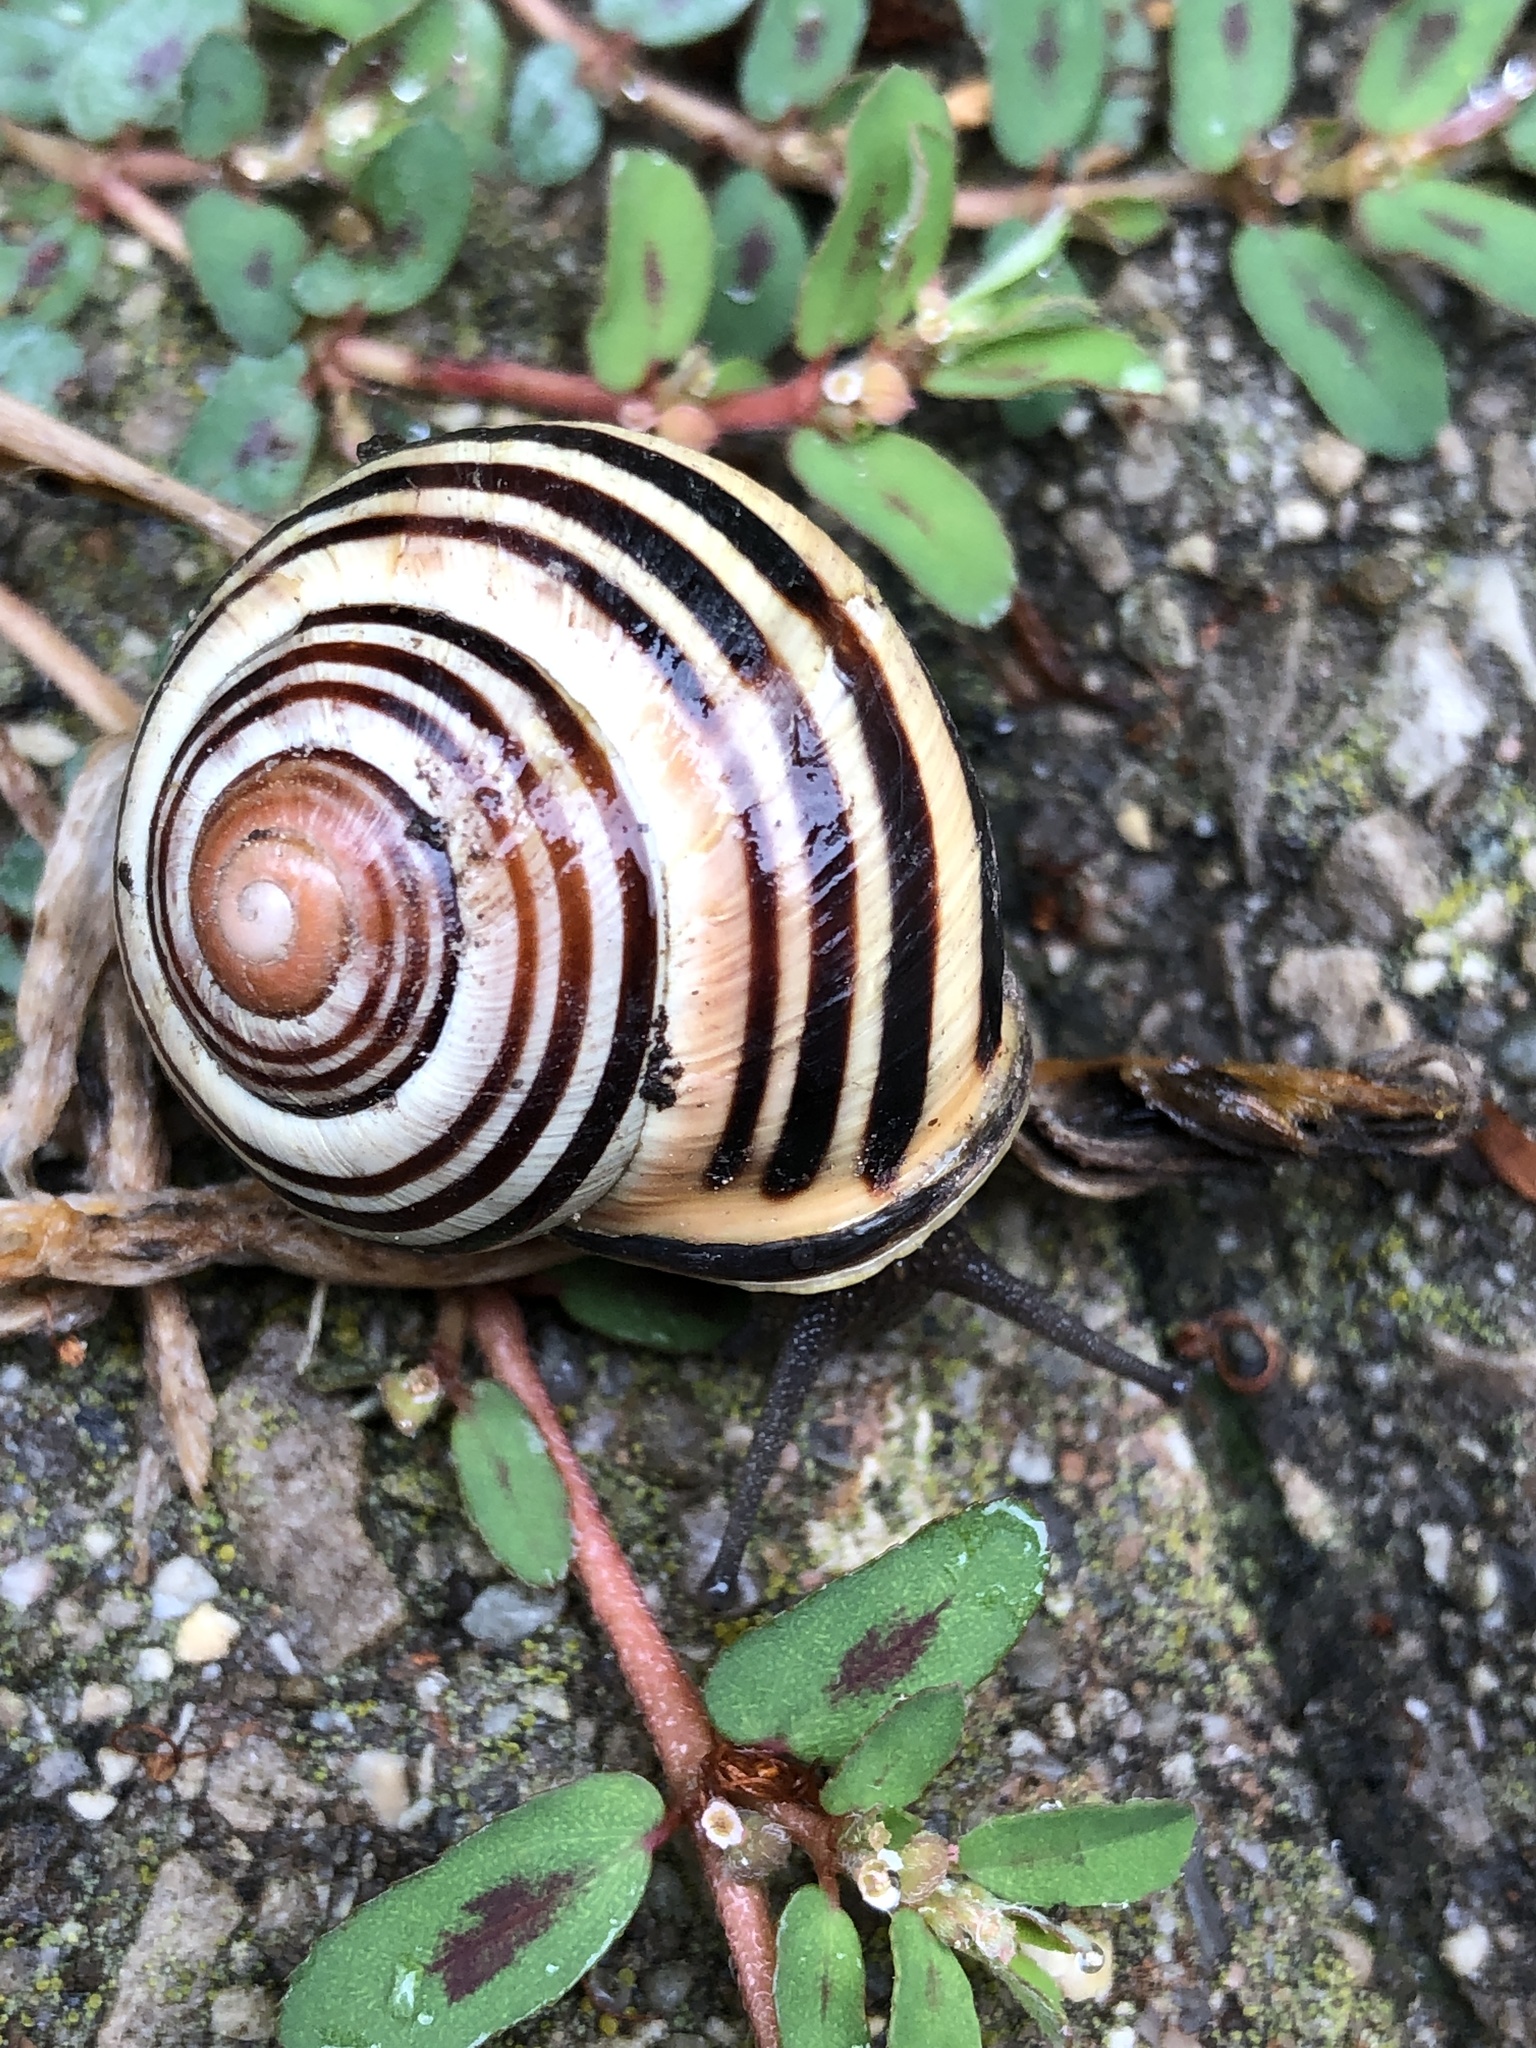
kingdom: Animalia
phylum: Mollusca
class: Gastropoda
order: Stylommatophora
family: Helicidae
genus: Cepaea
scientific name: Cepaea nemoralis
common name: Grovesnail
